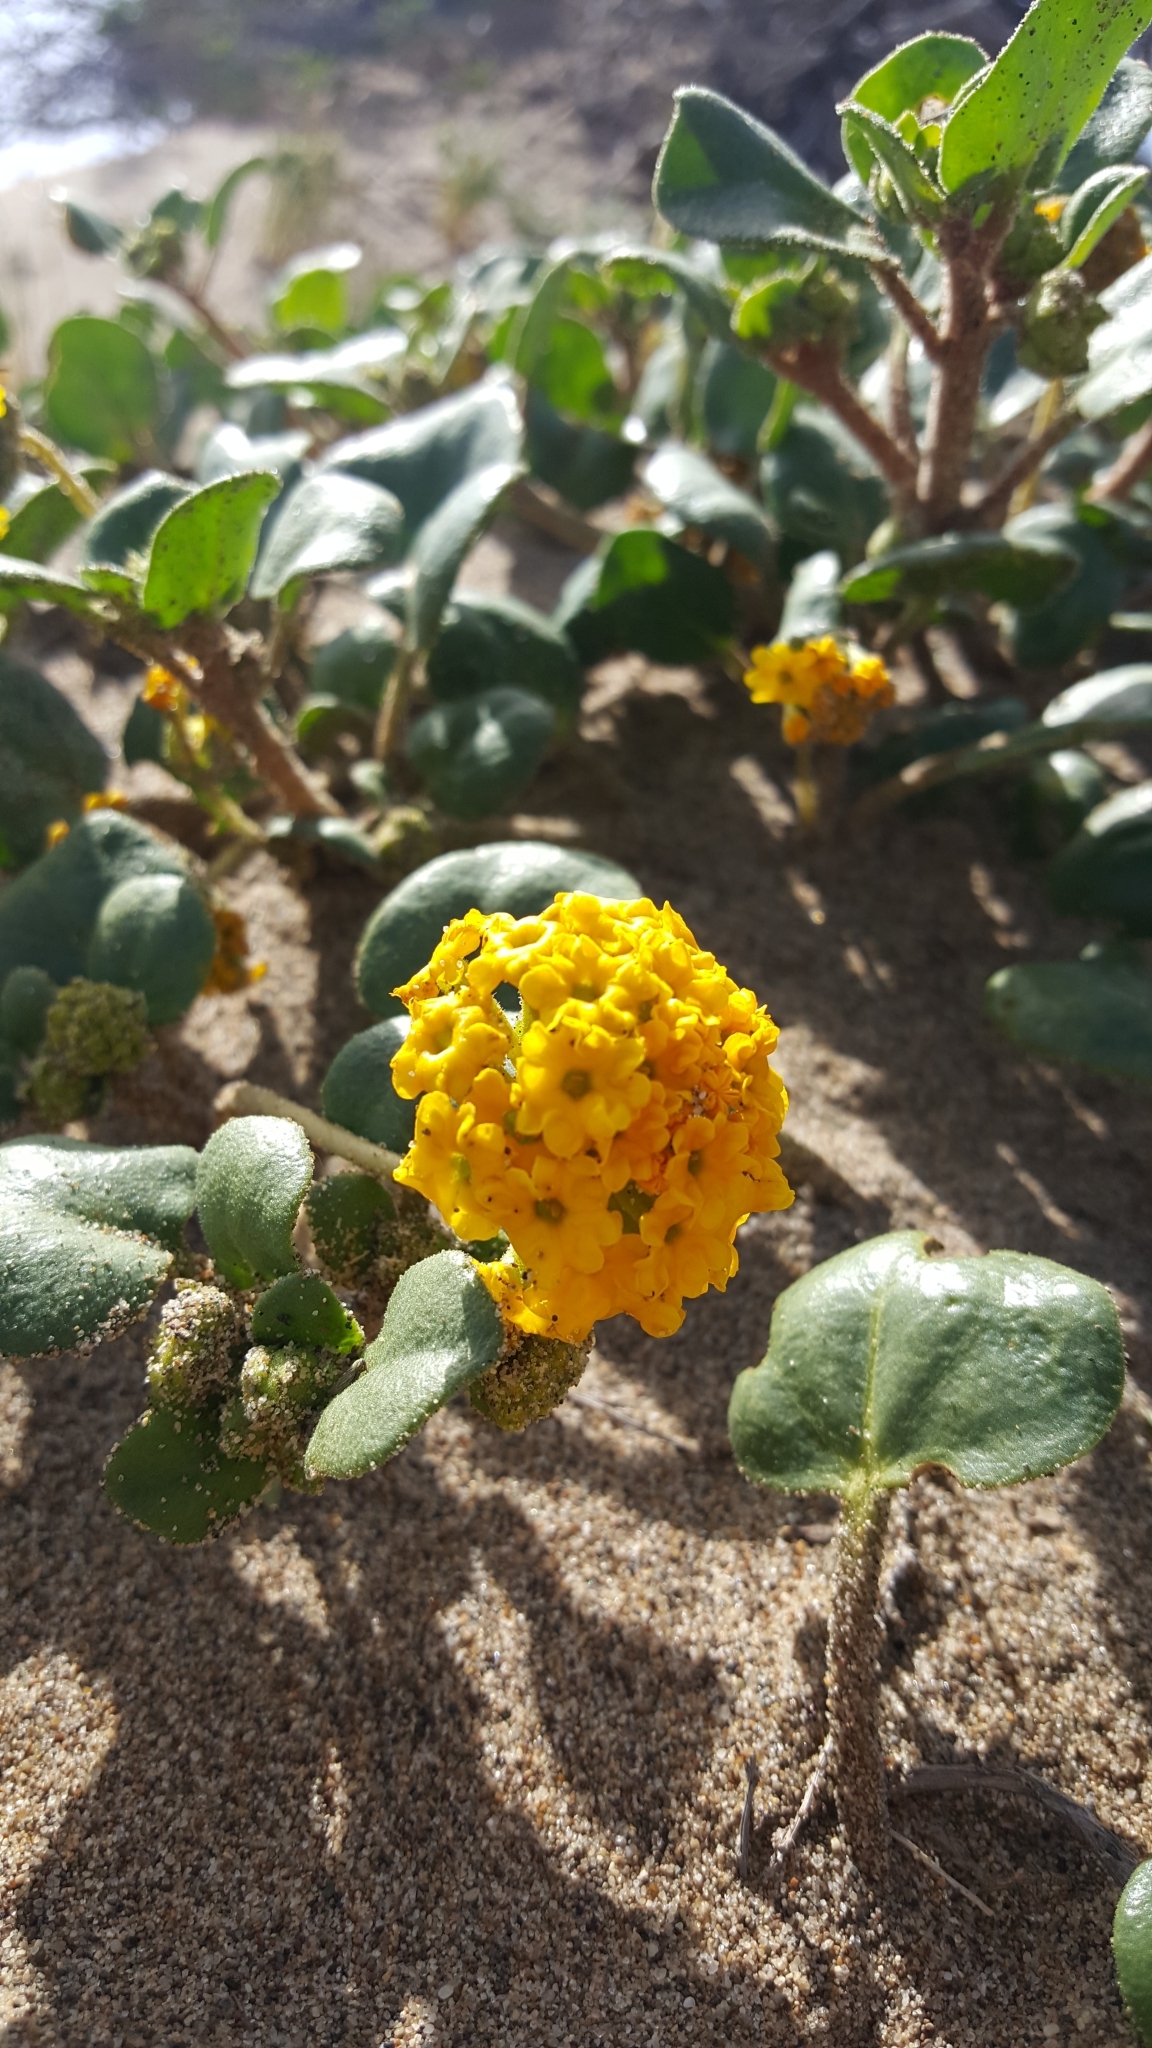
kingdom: Plantae
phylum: Tracheophyta
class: Magnoliopsida
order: Caryophyllales
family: Nyctaginaceae
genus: Abronia
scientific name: Abronia latifolia
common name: Yellow sand-verbena
